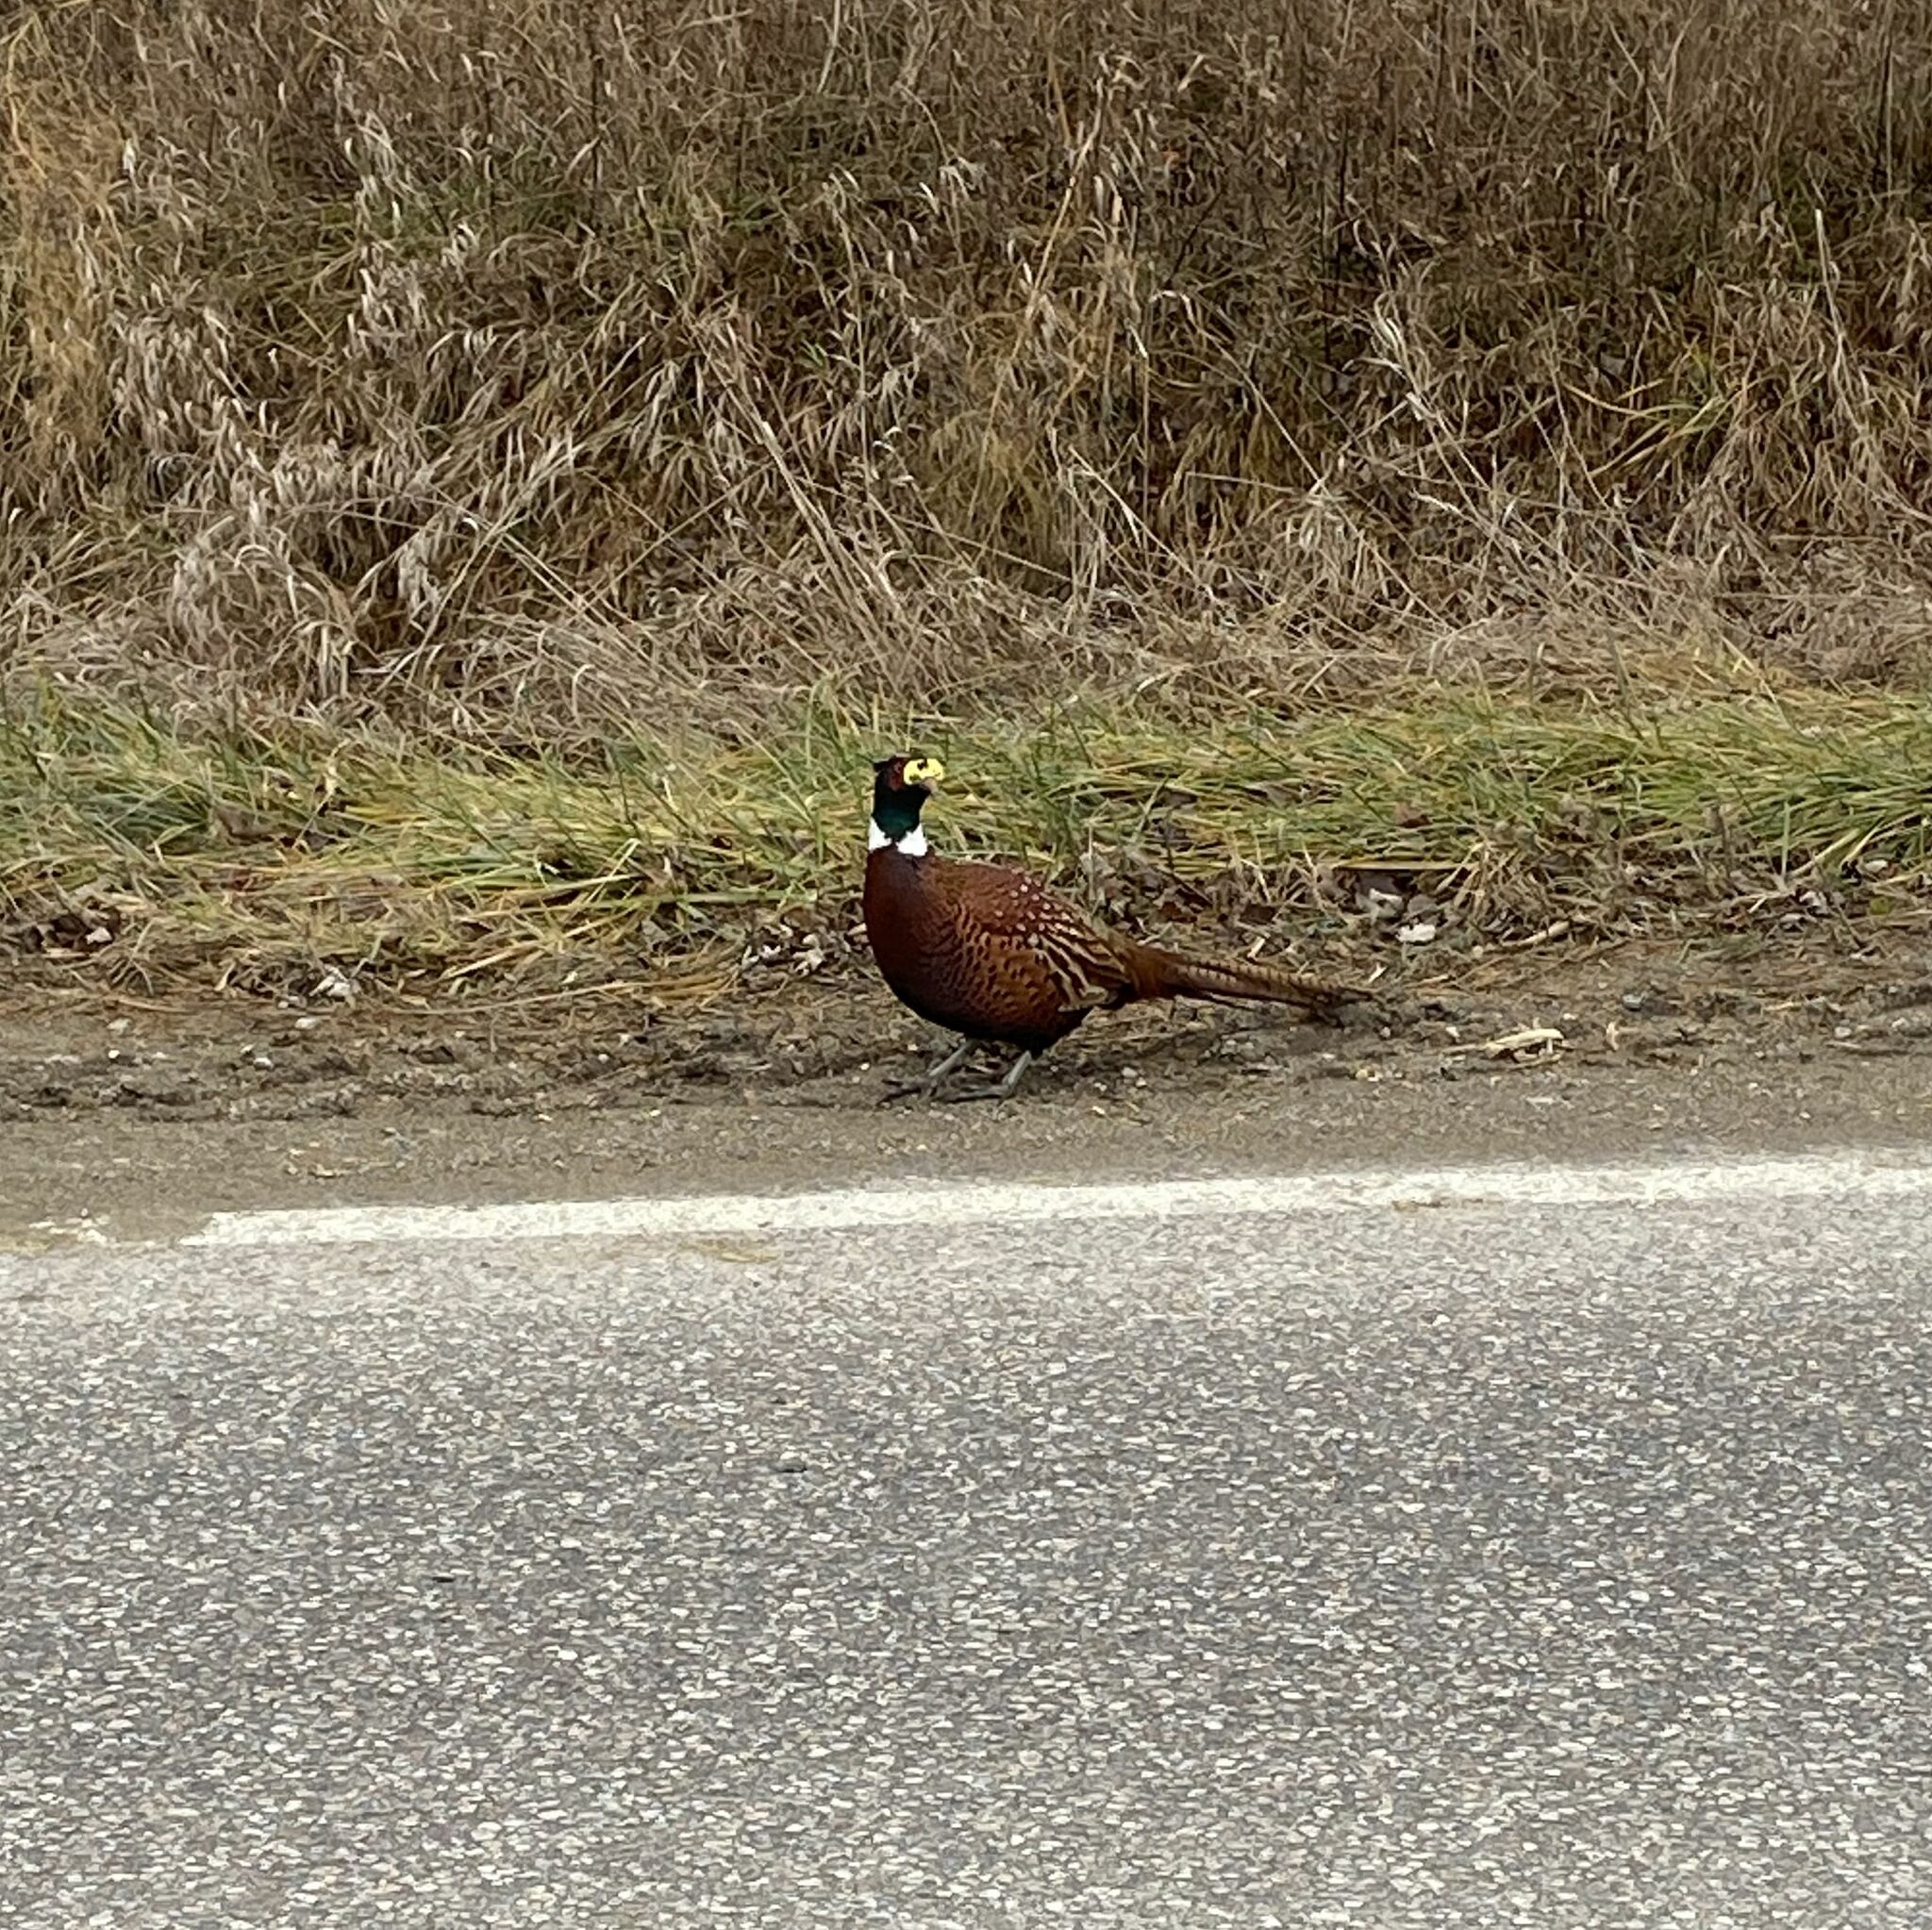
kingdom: Animalia
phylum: Chordata
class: Aves
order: Galliformes
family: Phasianidae
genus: Phasianus
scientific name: Phasianus colchicus
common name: Common pheasant
